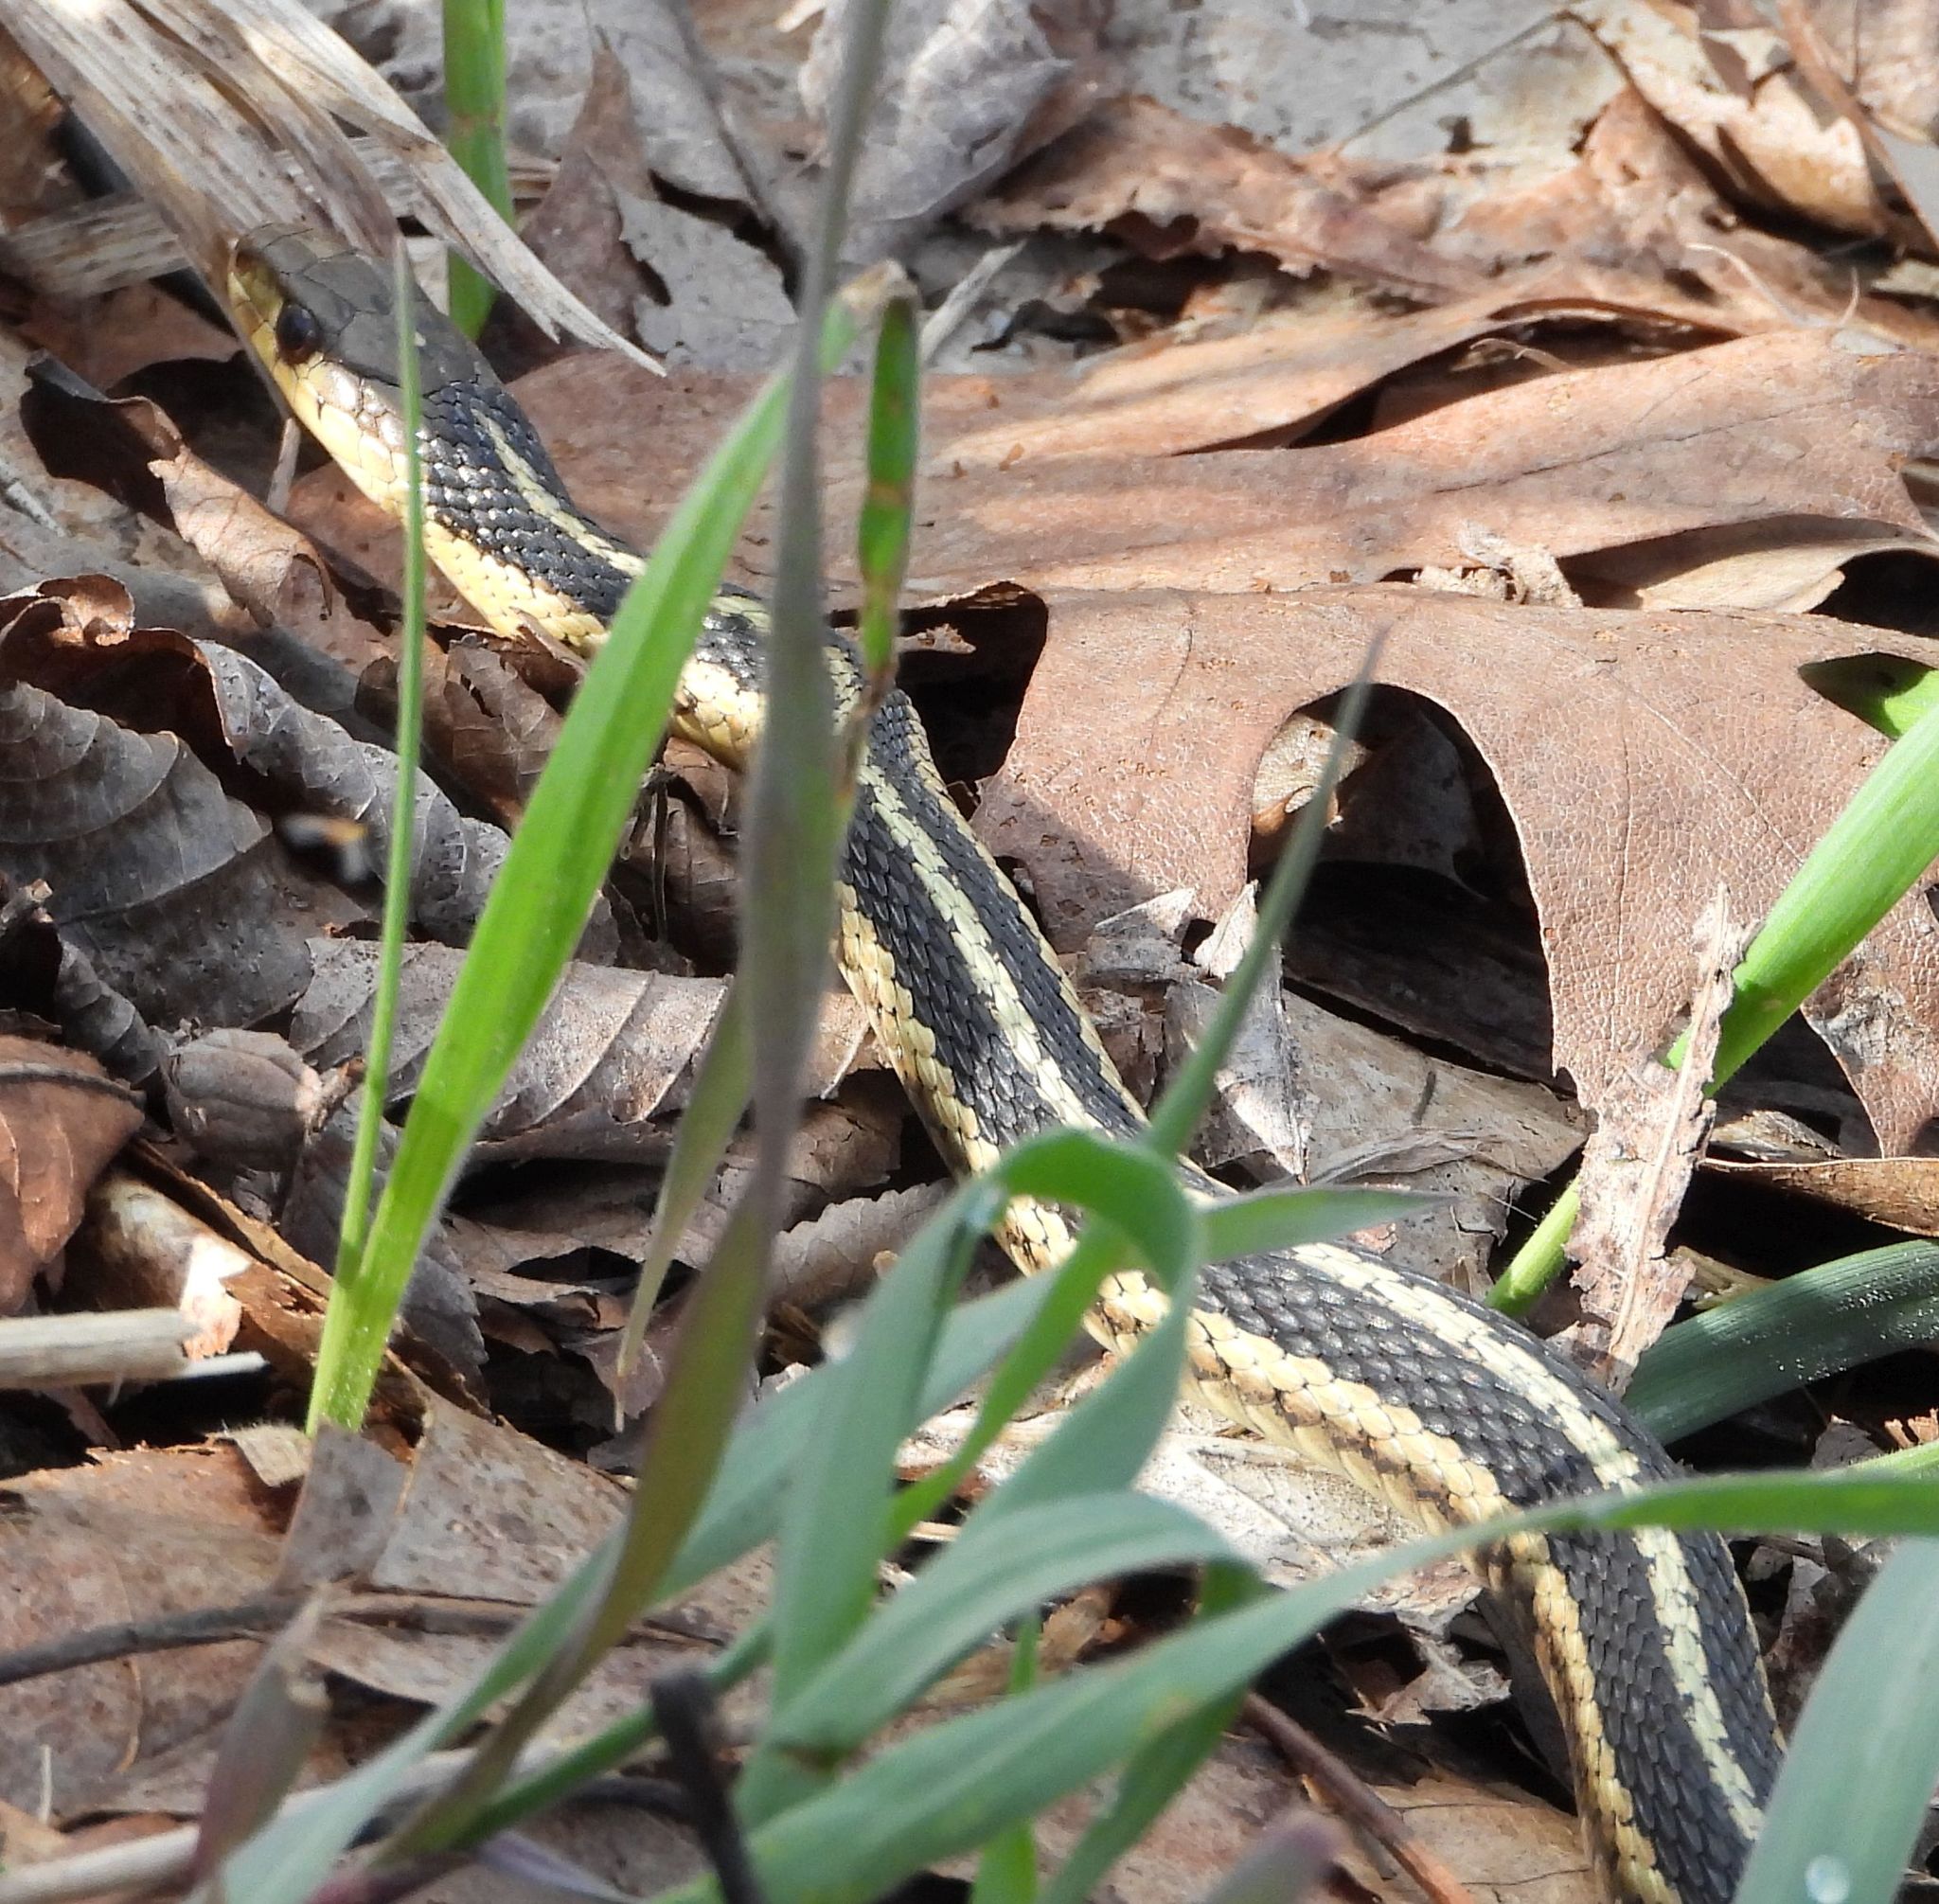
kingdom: Animalia
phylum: Chordata
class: Squamata
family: Colubridae
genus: Thamnophis
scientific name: Thamnophis sirtalis
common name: Common garter snake
